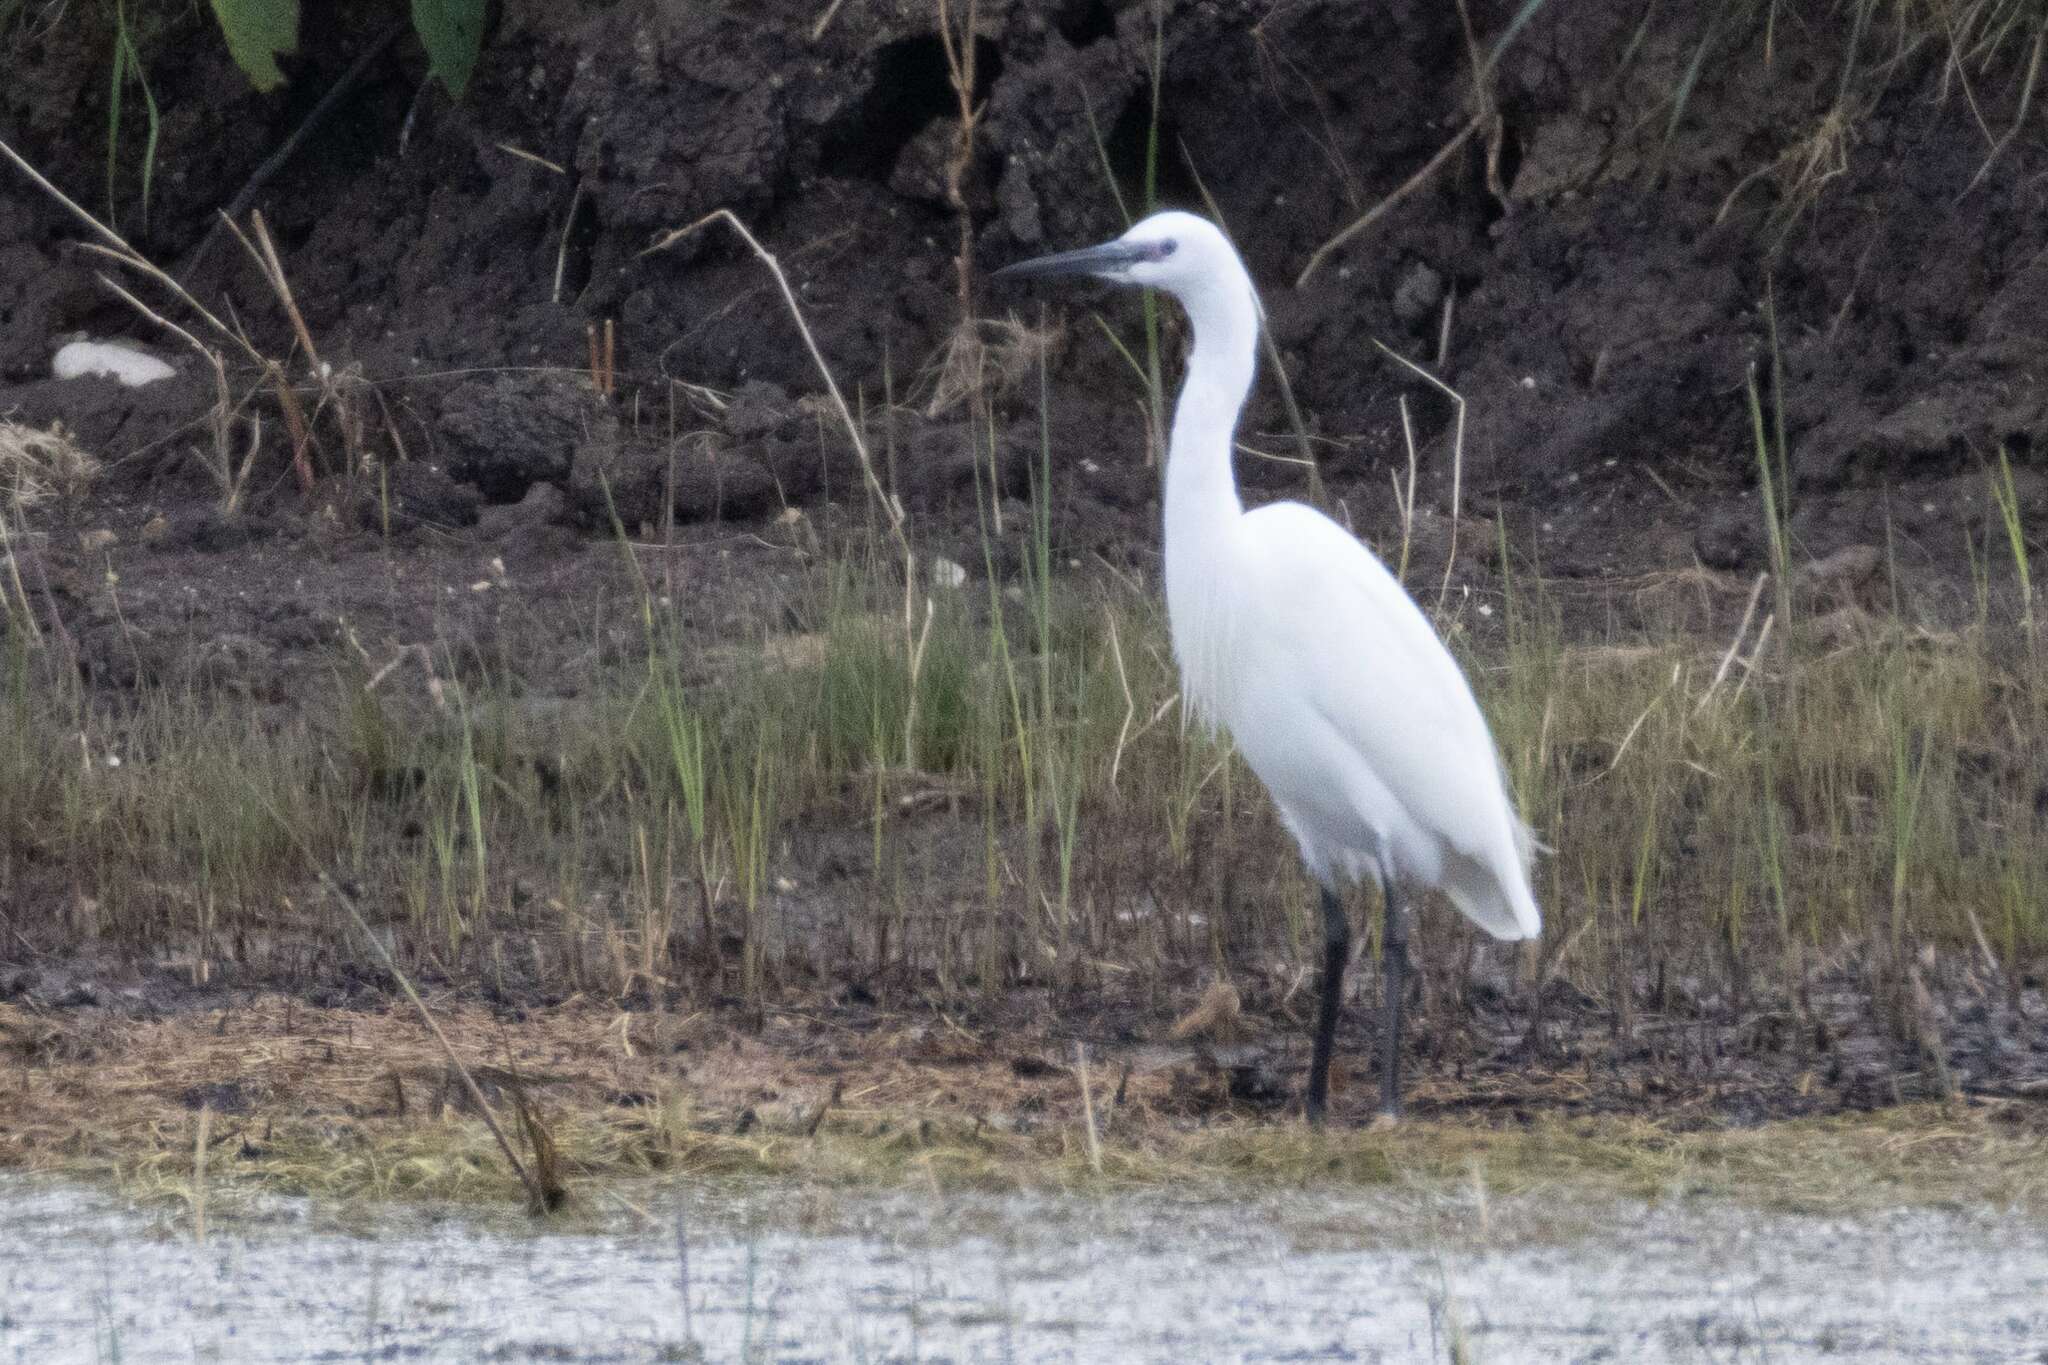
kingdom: Animalia
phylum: Chordata
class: Aves
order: Pelecaniformes
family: Ardeidae
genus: Egretta
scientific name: Egretta garzetta
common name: Little egret
